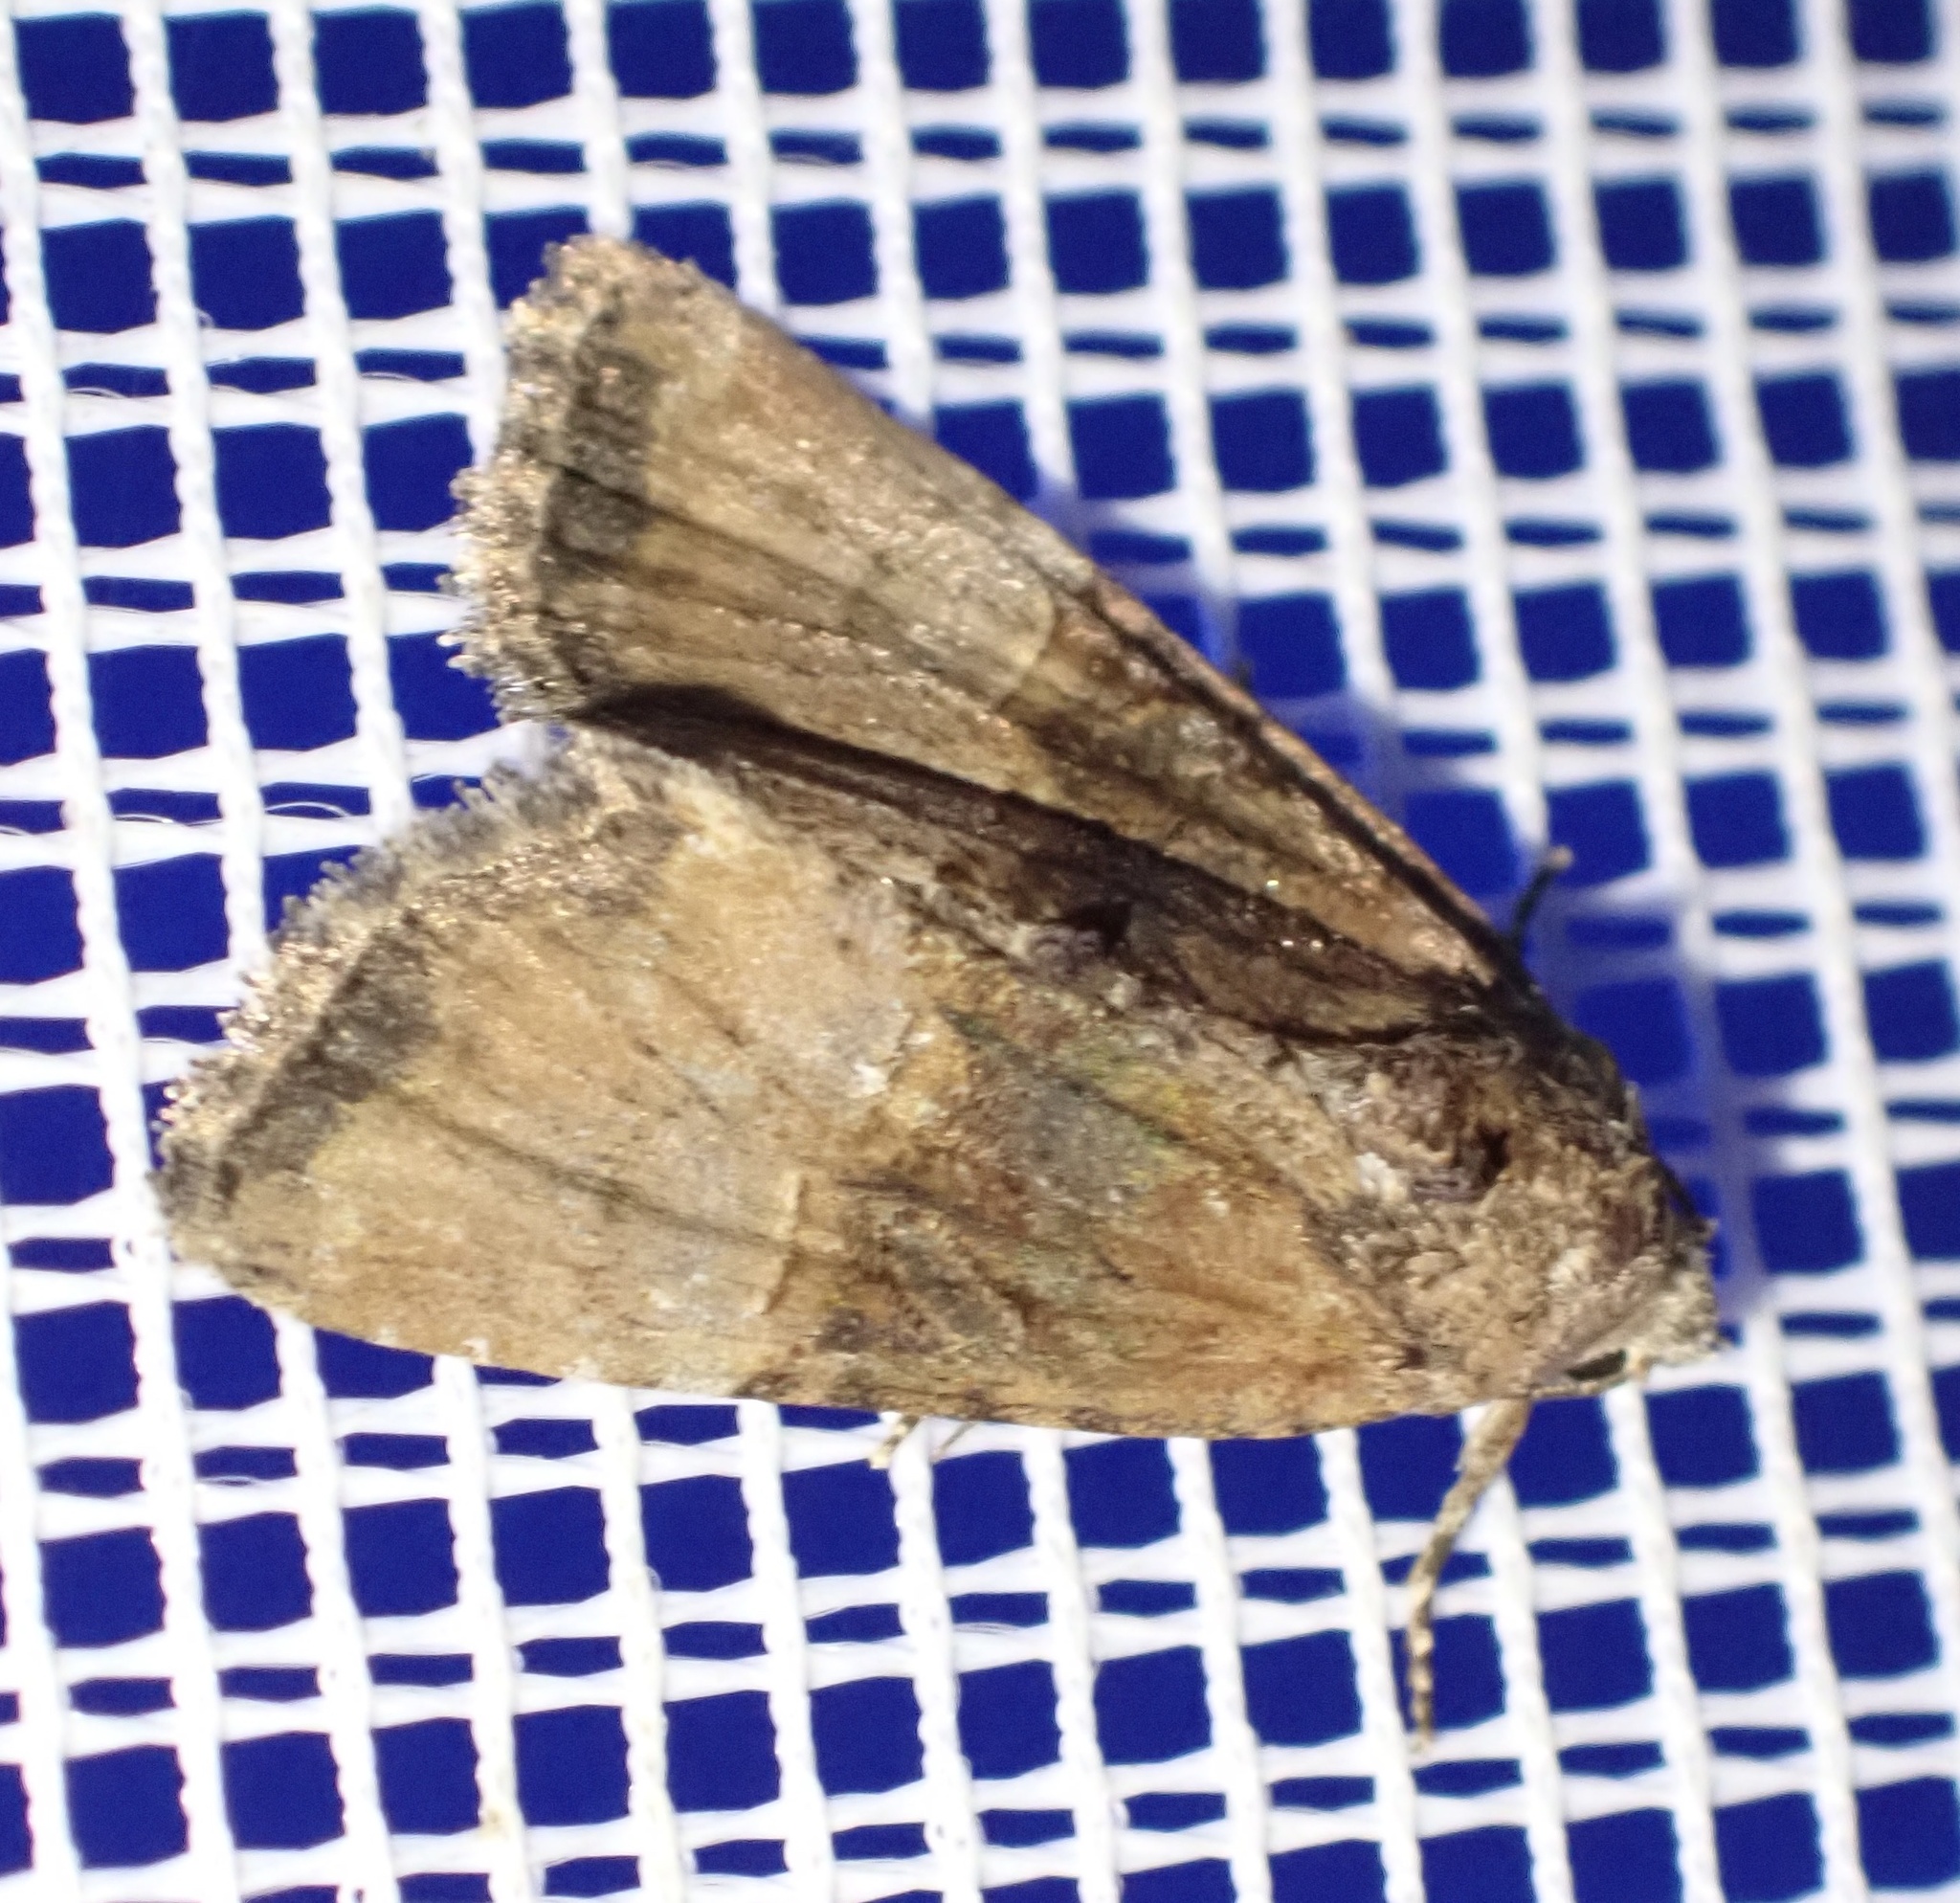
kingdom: Animalia
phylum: Arthropoda
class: Insecta
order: Lepidoptera
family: Noctuidae
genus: Mesoligia
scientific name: Mesoligia furuncula
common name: Cloaked minor
